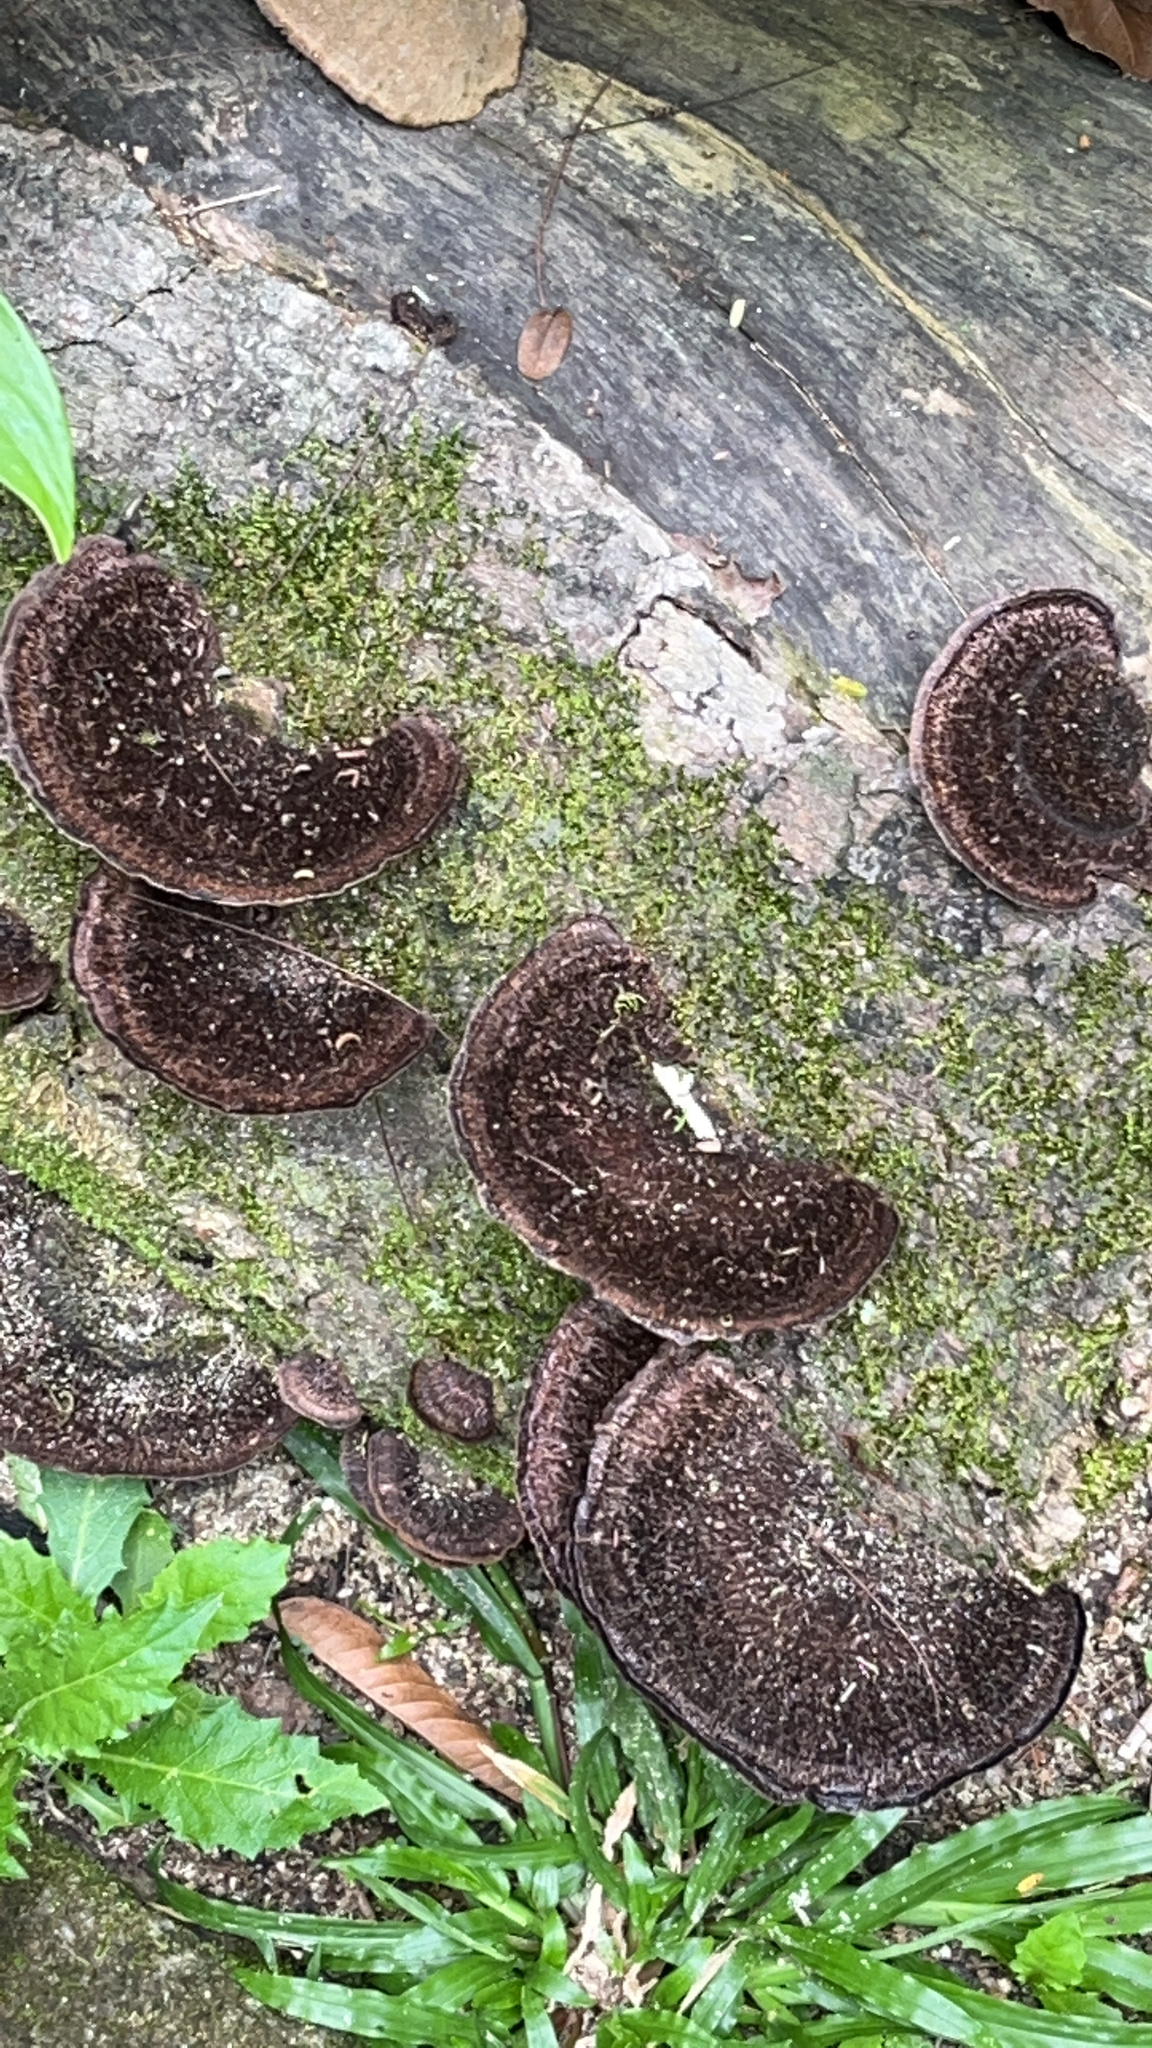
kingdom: Fungi
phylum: Basidiomycota
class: Agaricomycetes
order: Polyporales
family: Cerrenaceae
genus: Cerrena
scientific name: Cerrena hydnoides
